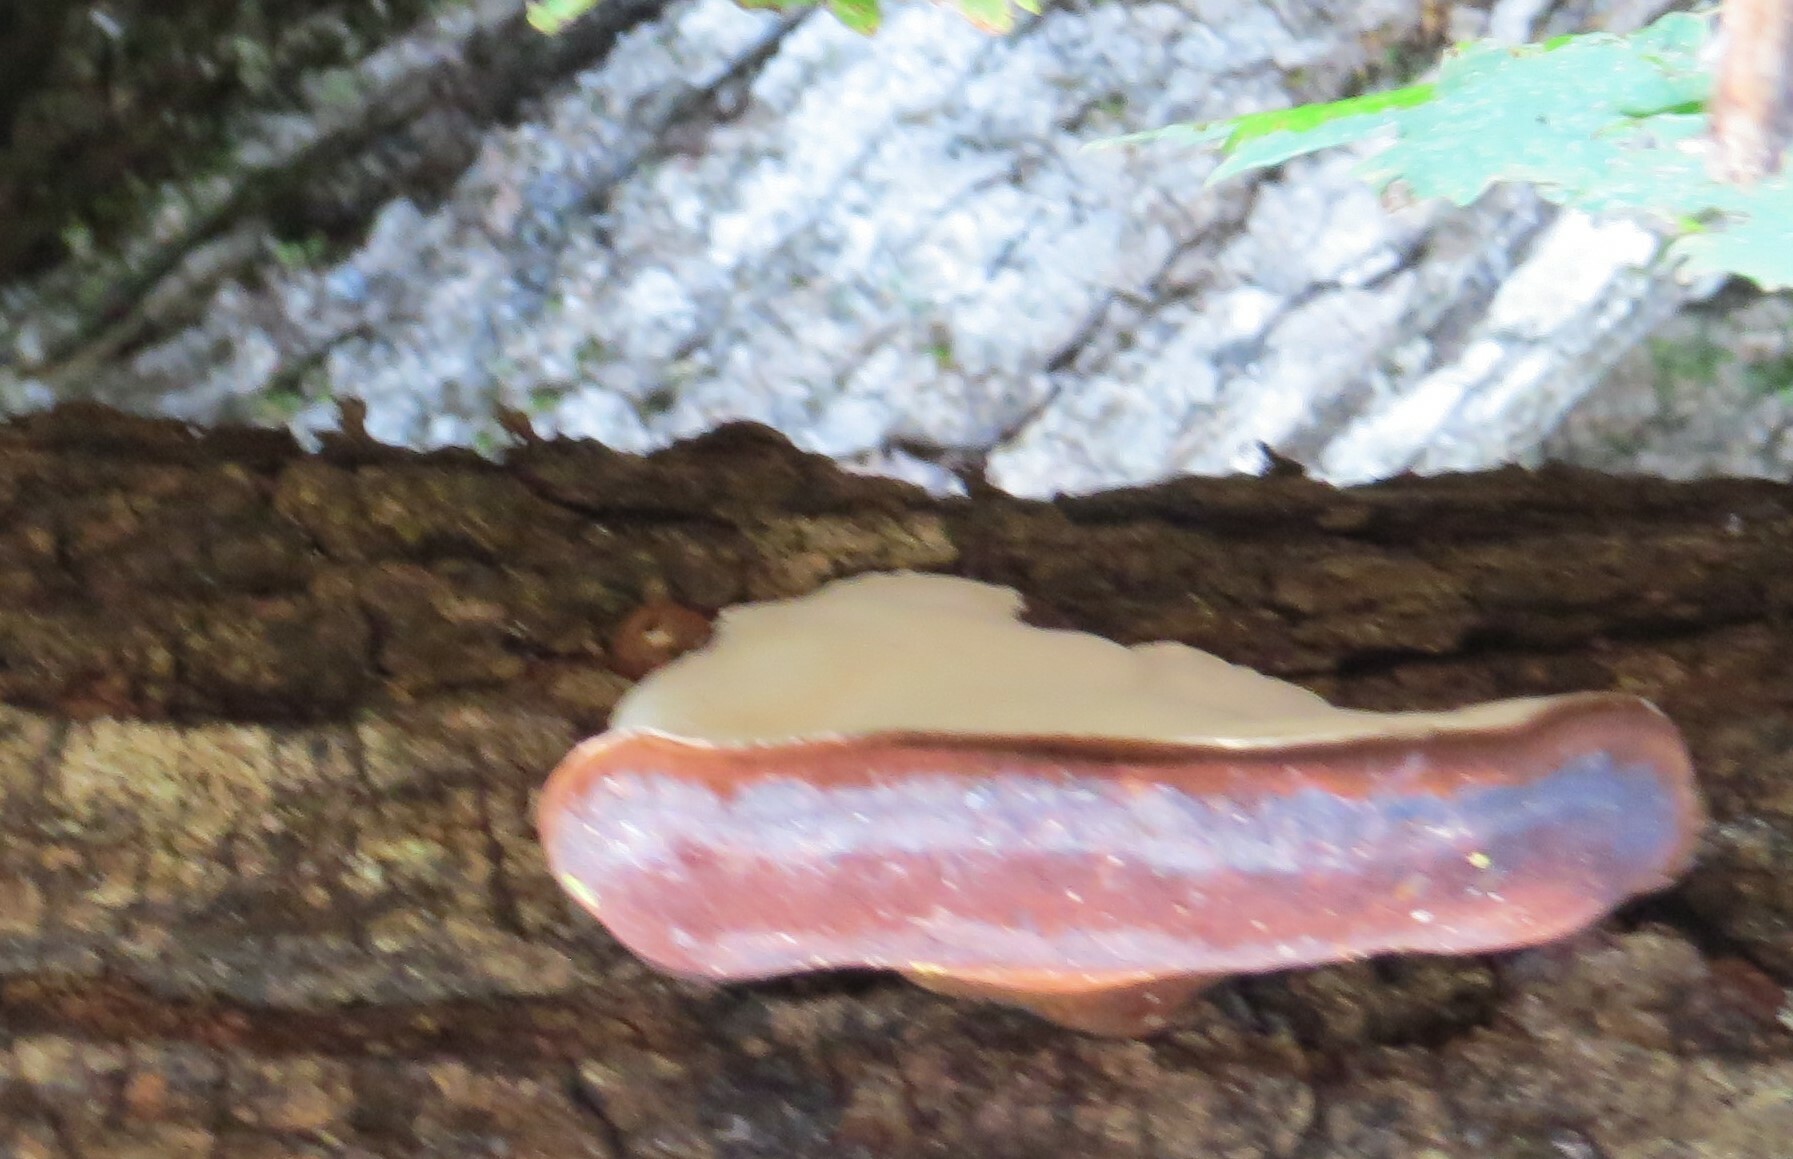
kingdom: Fungi
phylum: Basidiomycota
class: Agaricomycetes
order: Polyporales
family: Ischnodermataceae
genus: Ischnoderma
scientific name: Ischnoderma resinosum
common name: Resinous polypore
